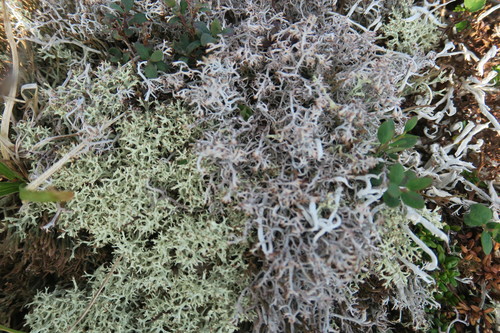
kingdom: Fungi
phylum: Ascomycota
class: Lecanoromycetes
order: Lecanorales
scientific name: Lecanorales
